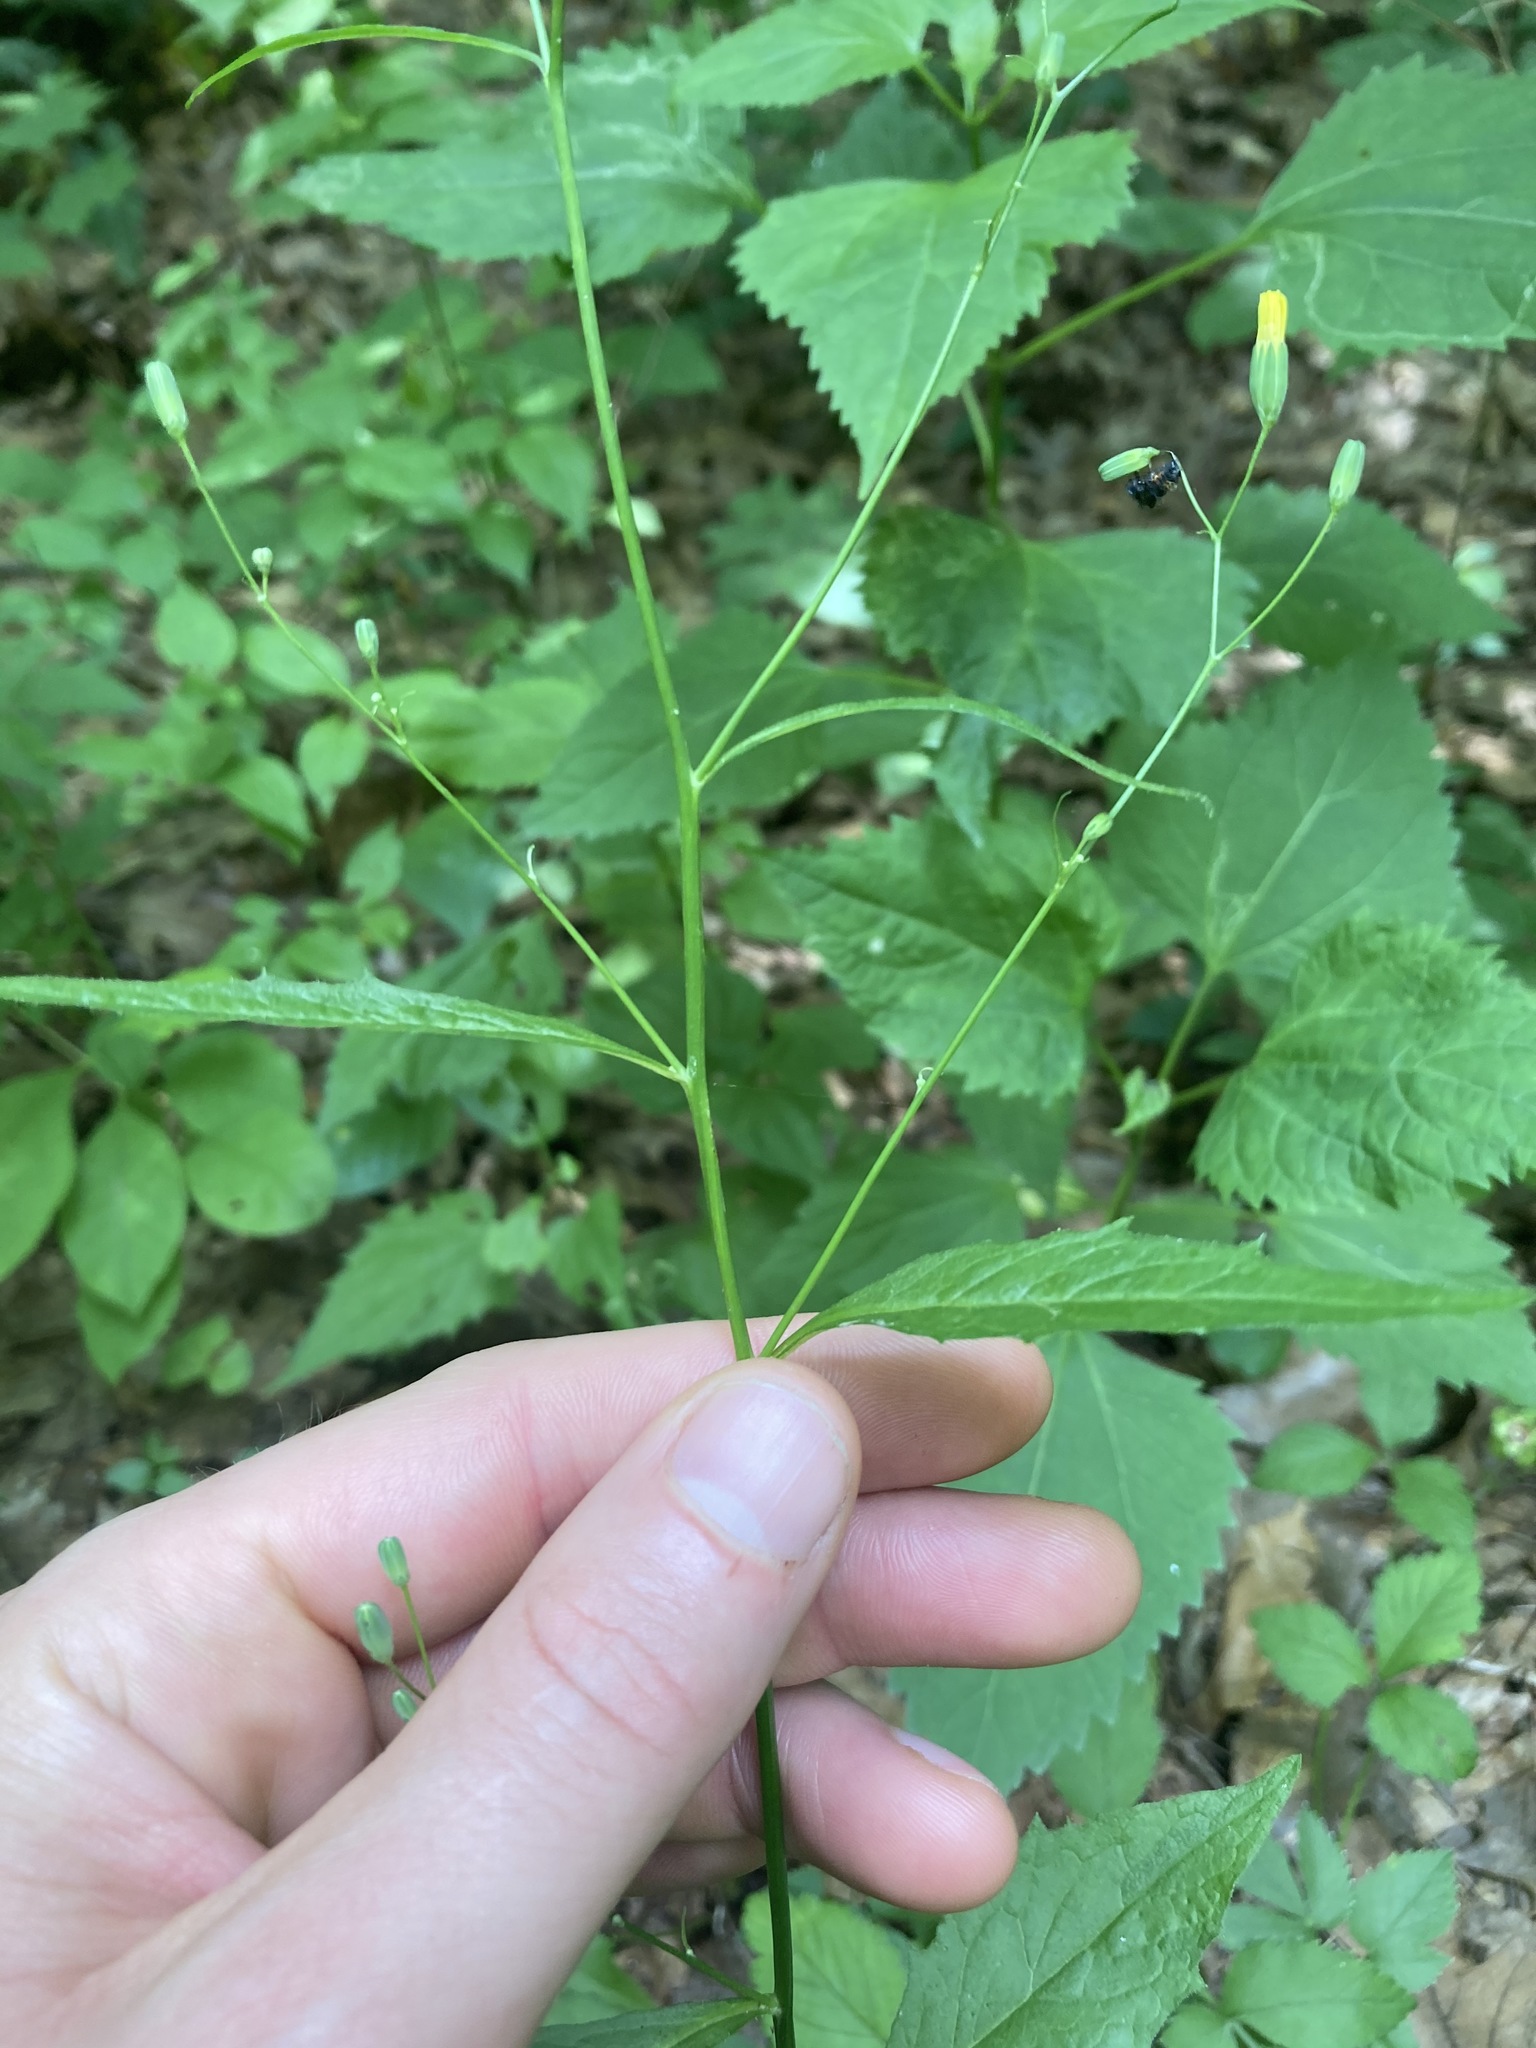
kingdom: Plantae
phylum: Tracheophyta
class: Magnoliopsida
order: Asterales
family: Asteraceae
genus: Lapsana
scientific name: Lapsana communis
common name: Nipplewort
